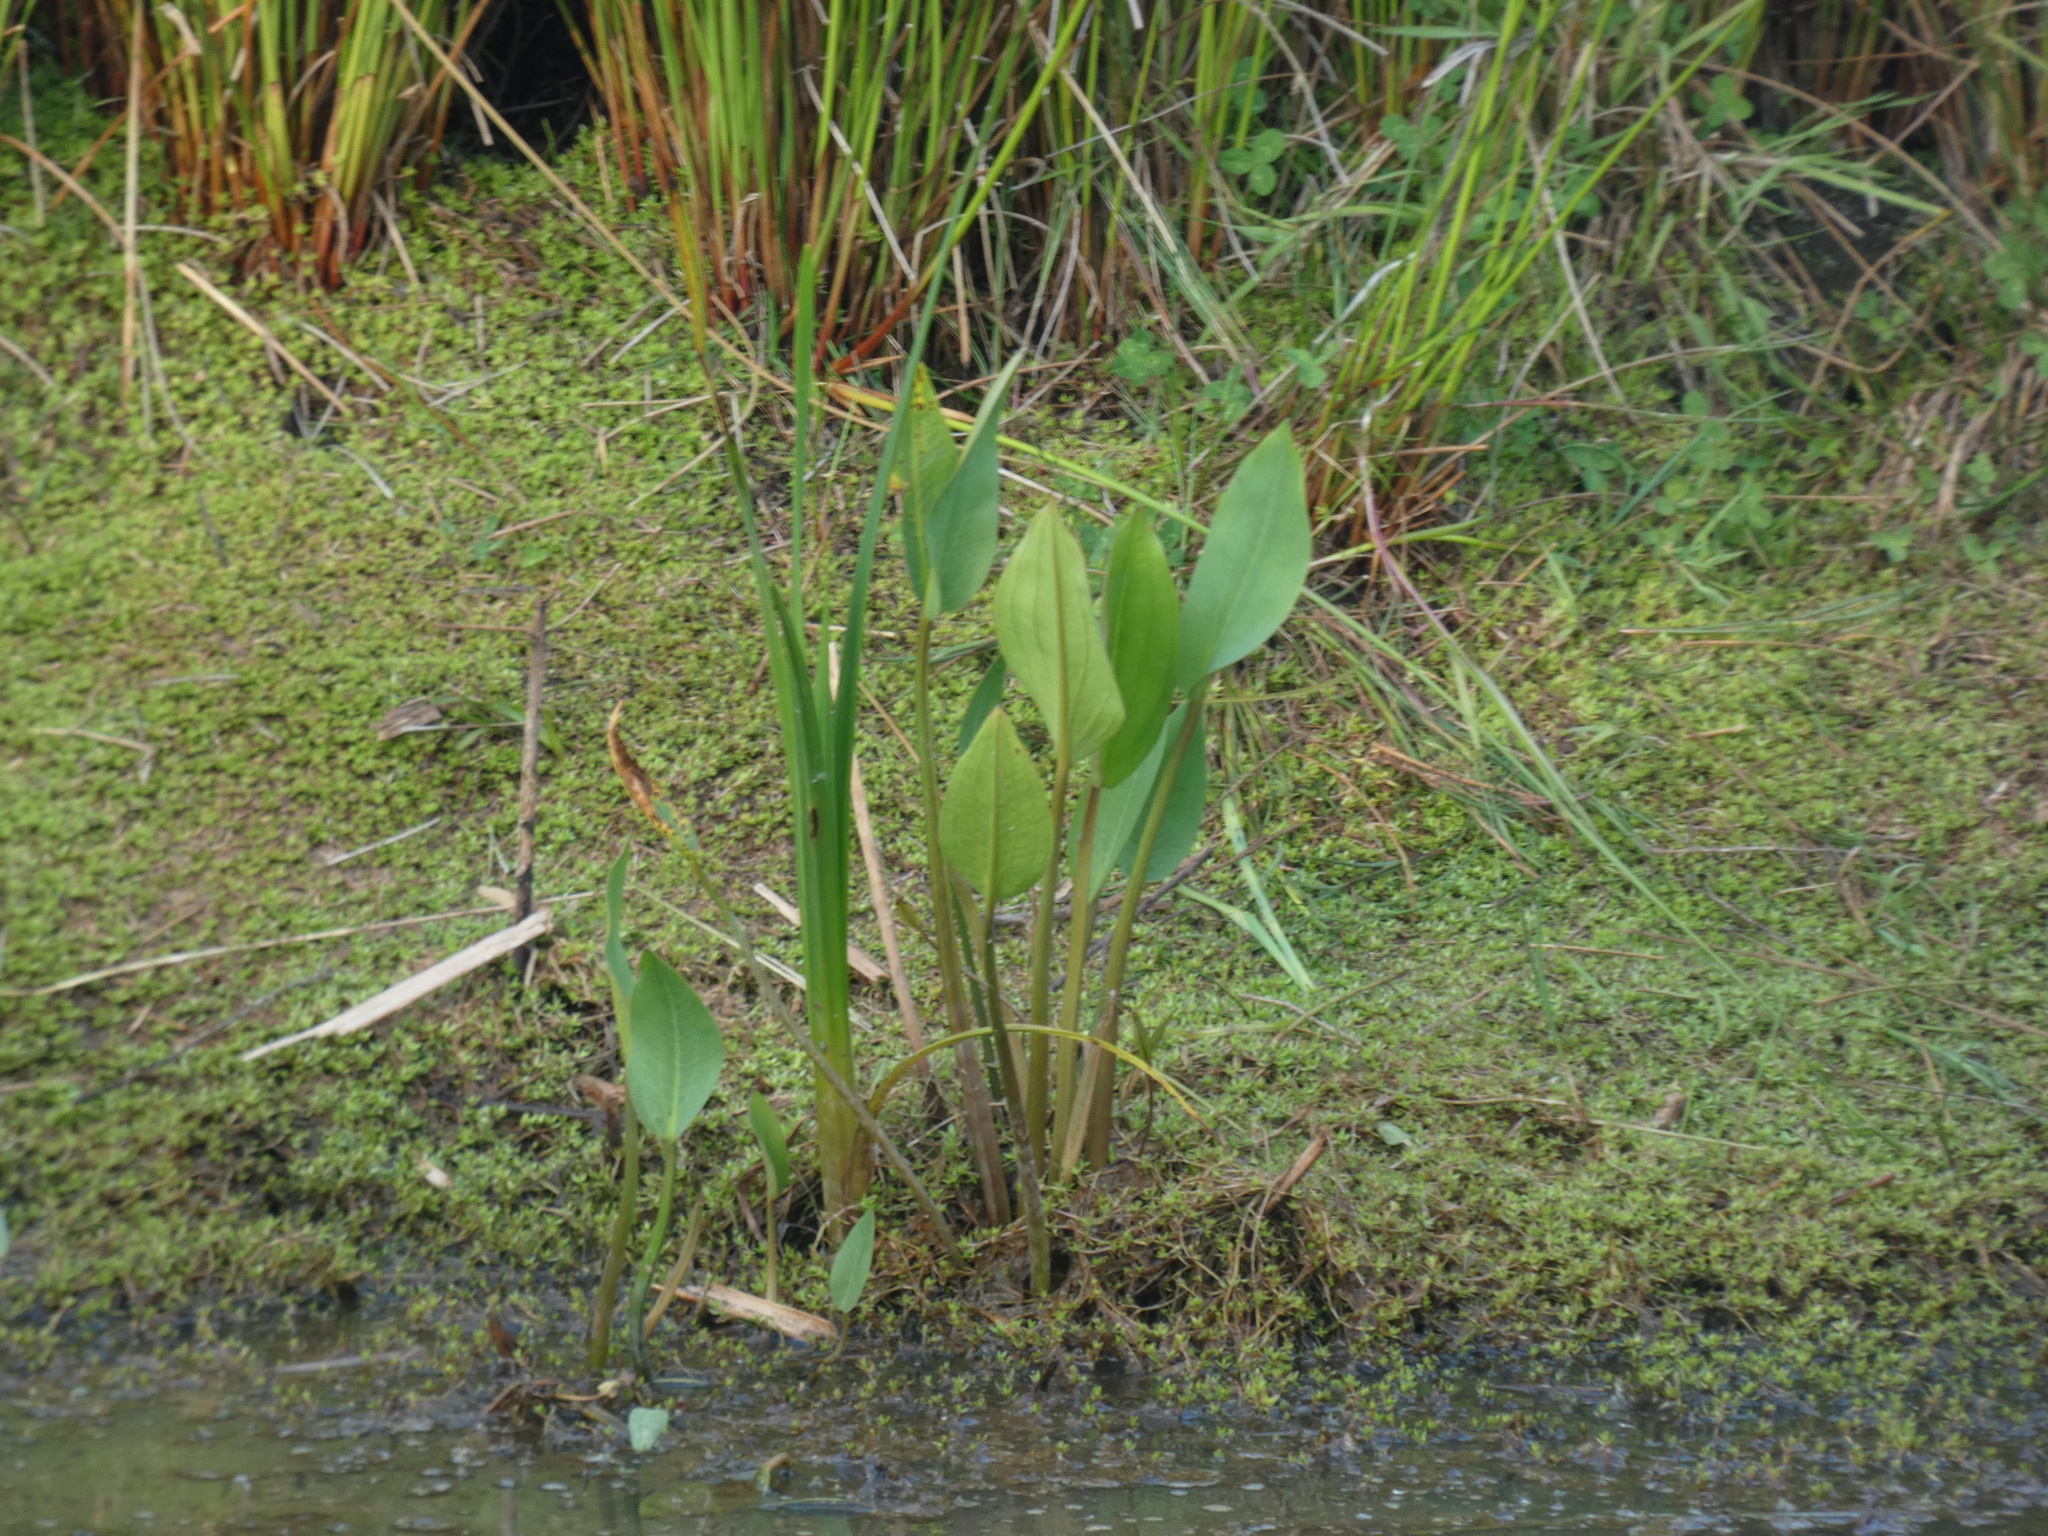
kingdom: Plantae
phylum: Tracheophyta
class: Liliopsida
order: Alismatales
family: Alismataceae
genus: Alisma
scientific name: Alisma plantago-aquatica
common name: Water-plantain
